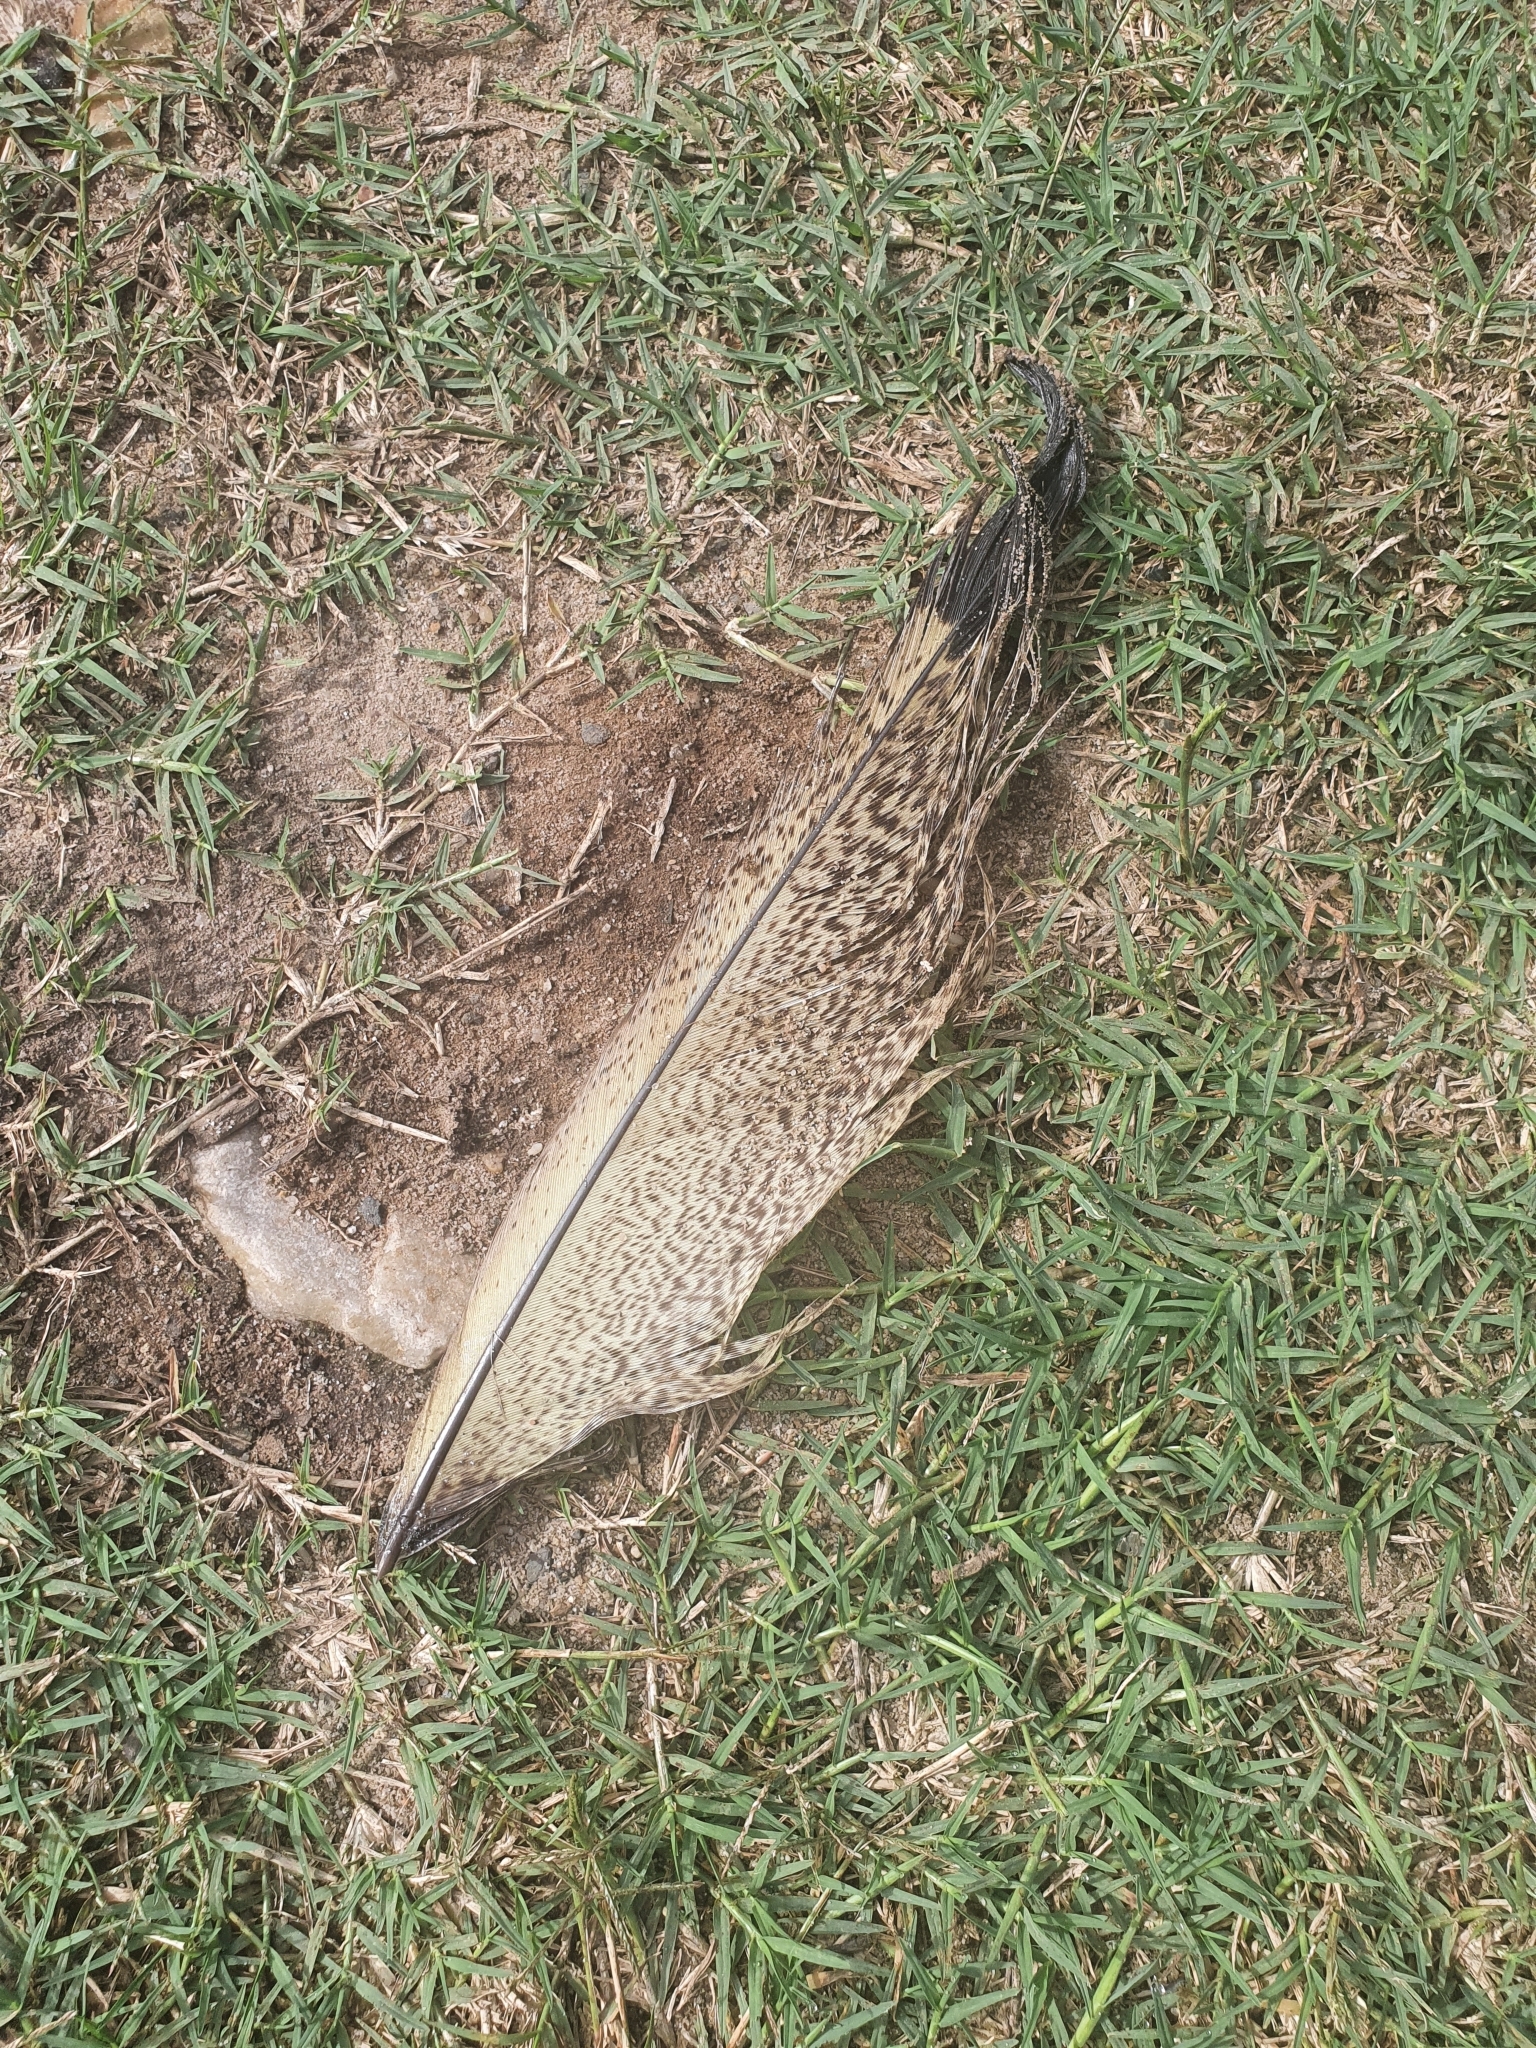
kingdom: Animalia
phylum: Chordata
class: Aves
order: Psittaciformes
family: Cacatuidae
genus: Zanda
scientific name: Zanda funerea
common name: Yellow-tailed black-cockatoo
